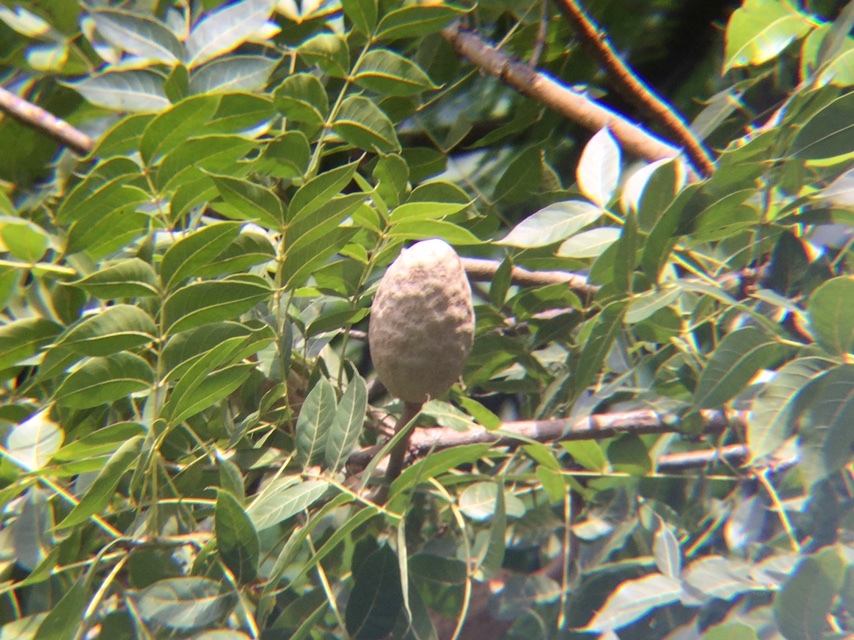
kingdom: Plantae
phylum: Tracheophyta
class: Magnoliopsida
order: Sapindales
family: Meliaceae
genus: Swietenia
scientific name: Swietenia humilis
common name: Pacific coast mahogany
